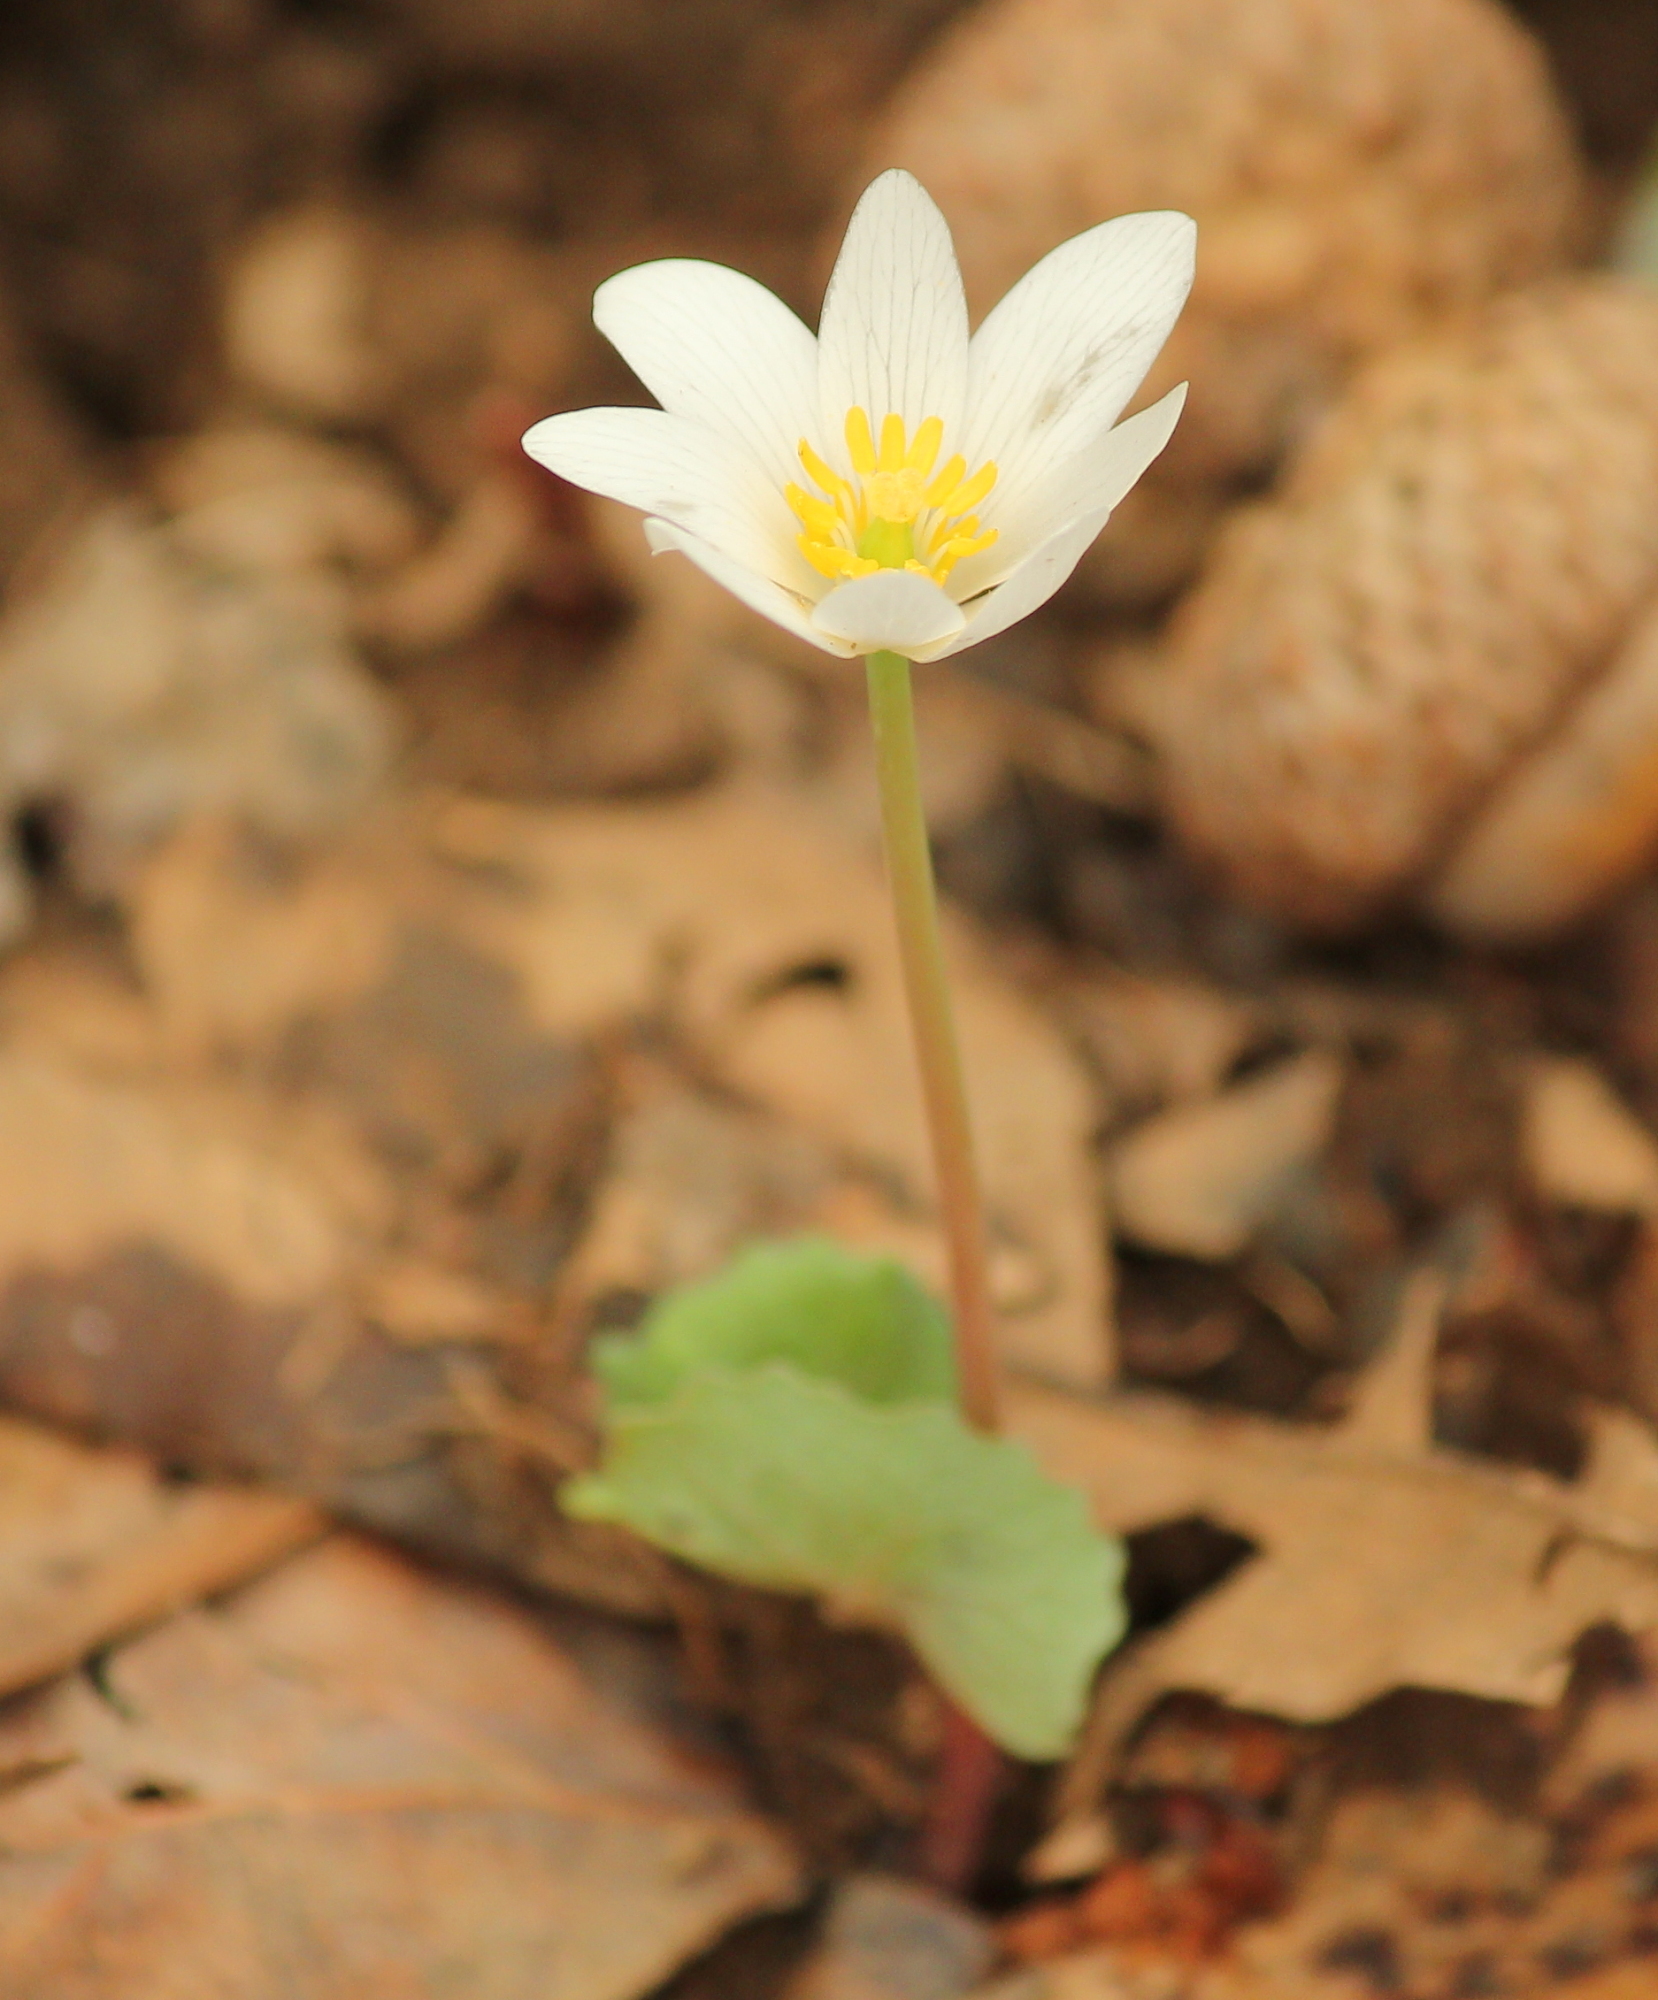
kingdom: Plantae
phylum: Tracheophyta
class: Magnoliopsida
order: Ranunculales
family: Papaveraceae
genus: Sanguinaria
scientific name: Sanguinaria canadensis
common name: Bloodroot
